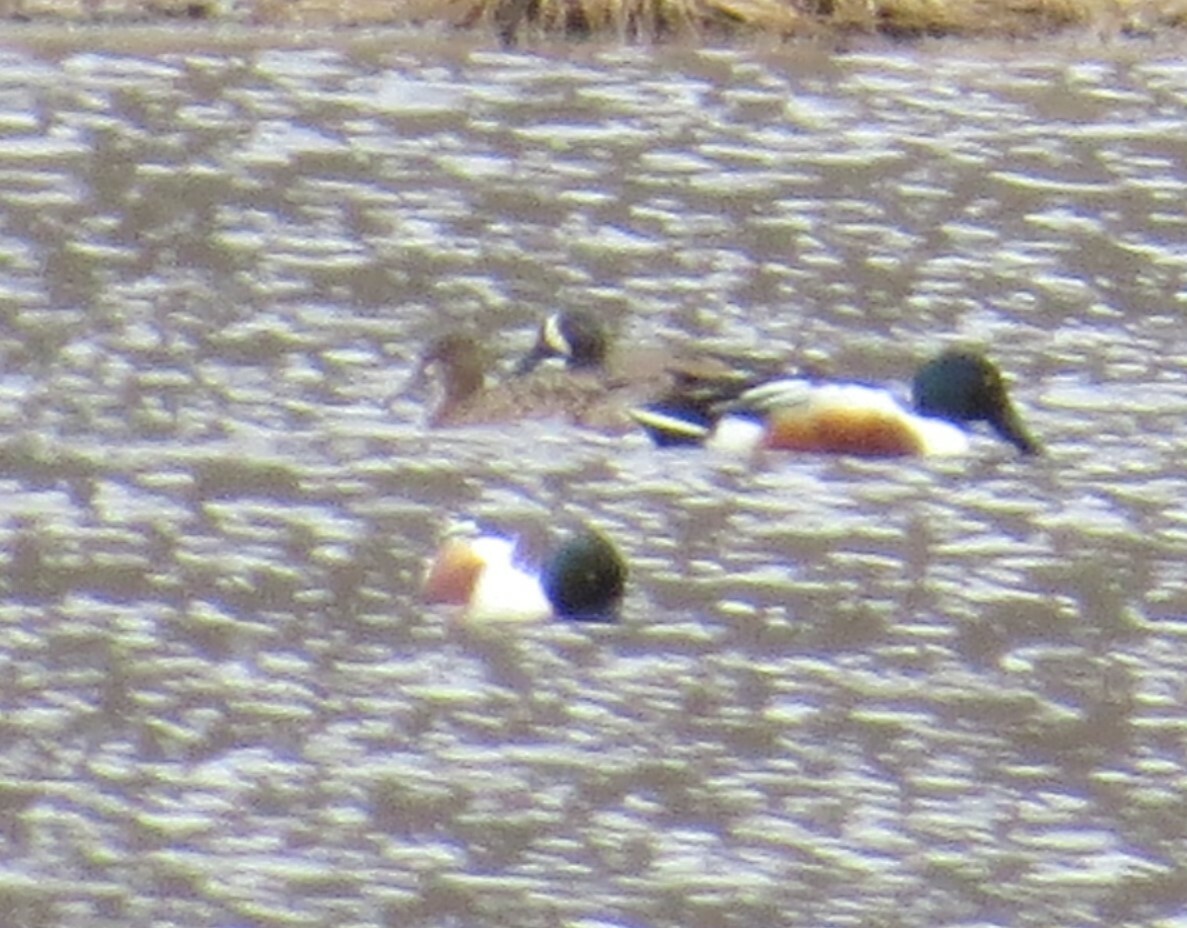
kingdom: Animalia
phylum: Chordata
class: Aves
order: Anseriformes
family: Anatidae
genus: Spatula
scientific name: Spatula discors
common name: Blue-winged teal
